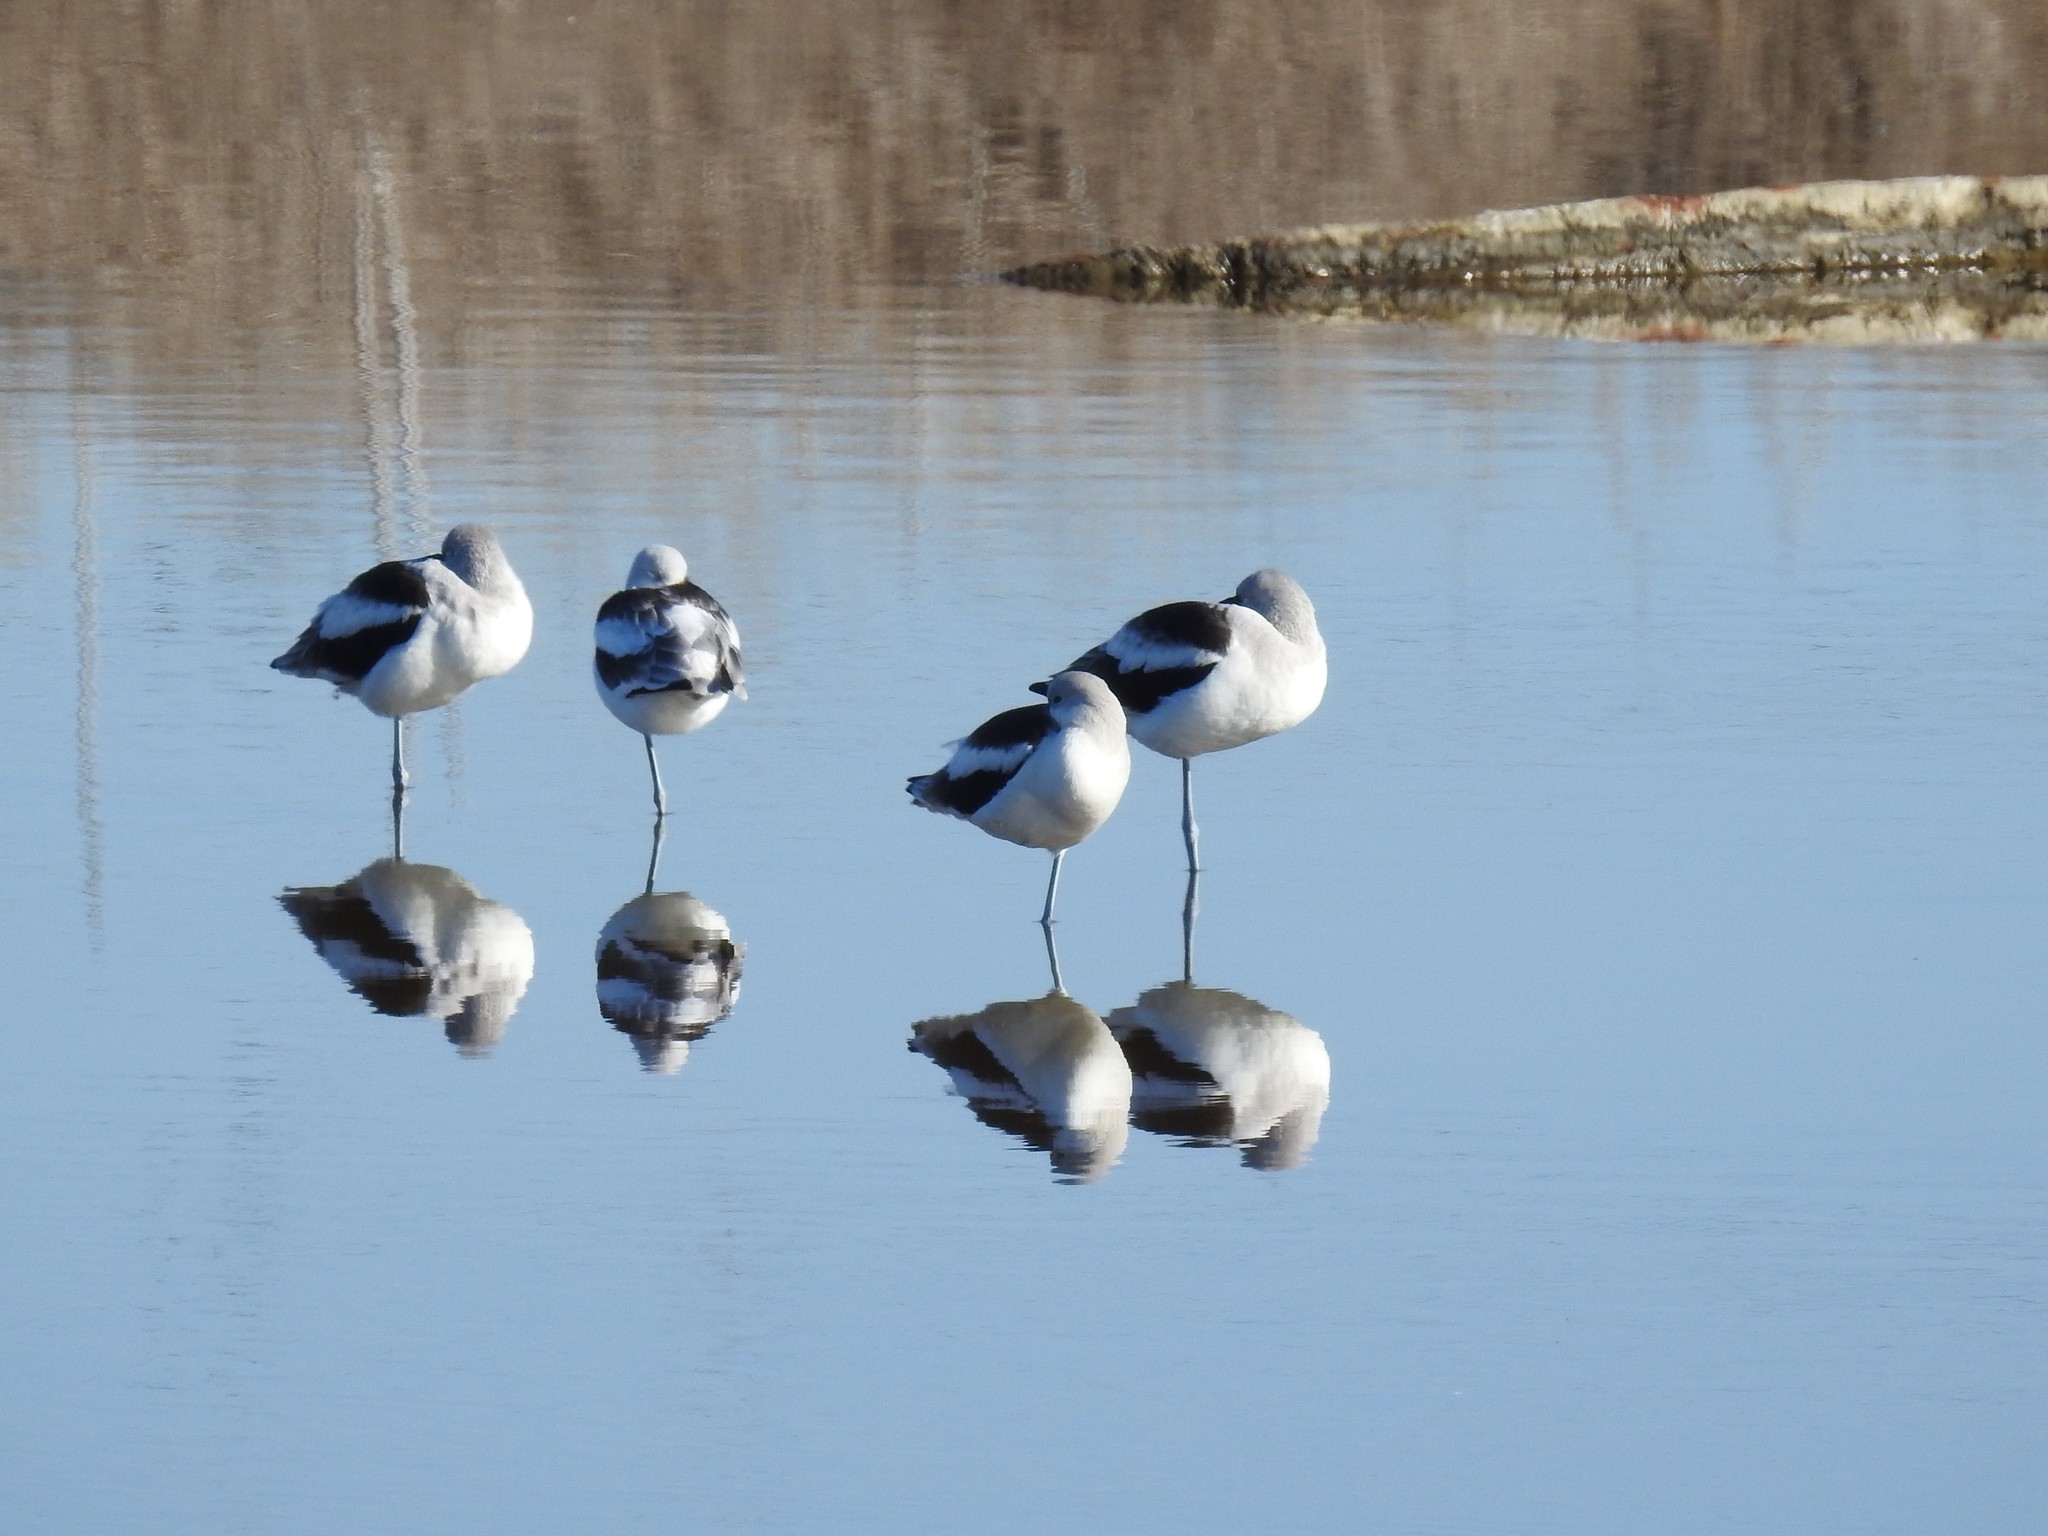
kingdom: Animalia
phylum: Chordata
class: Aves
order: Charadriiformes
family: Recurvirostridae
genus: Recurvirostra
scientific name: Recurvirostra americana
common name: American avocet
